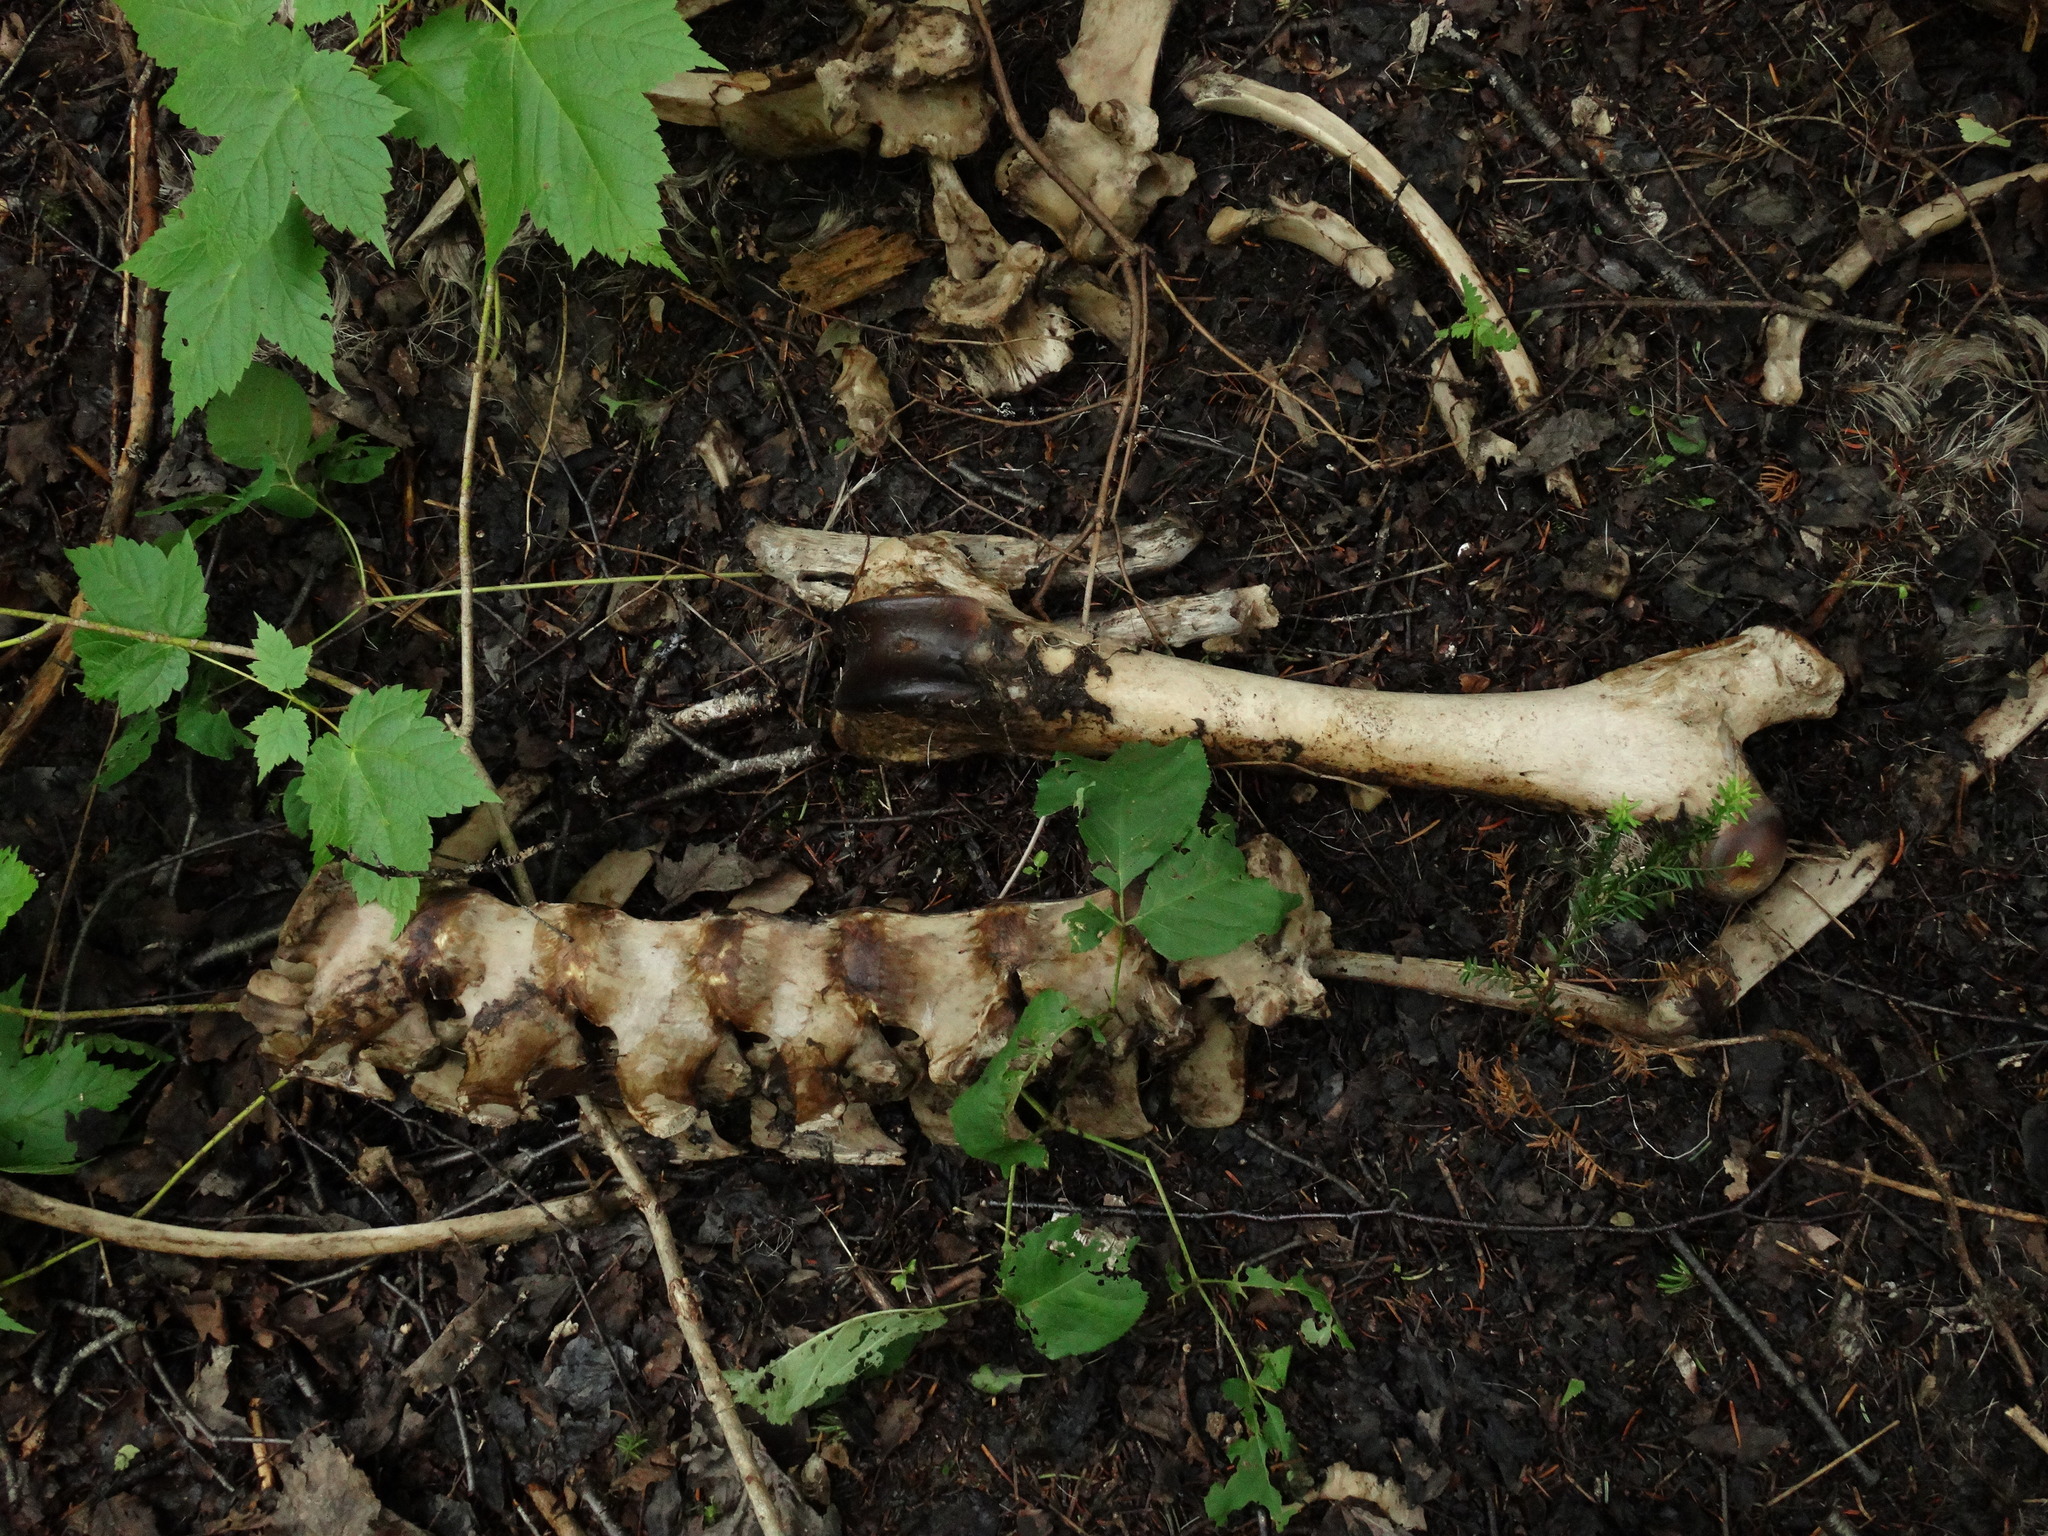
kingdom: Animalia
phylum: Chordata
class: Mammalia
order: Artiodactyla
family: Cervidae
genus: Alces
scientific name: Alces alces
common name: Moose
